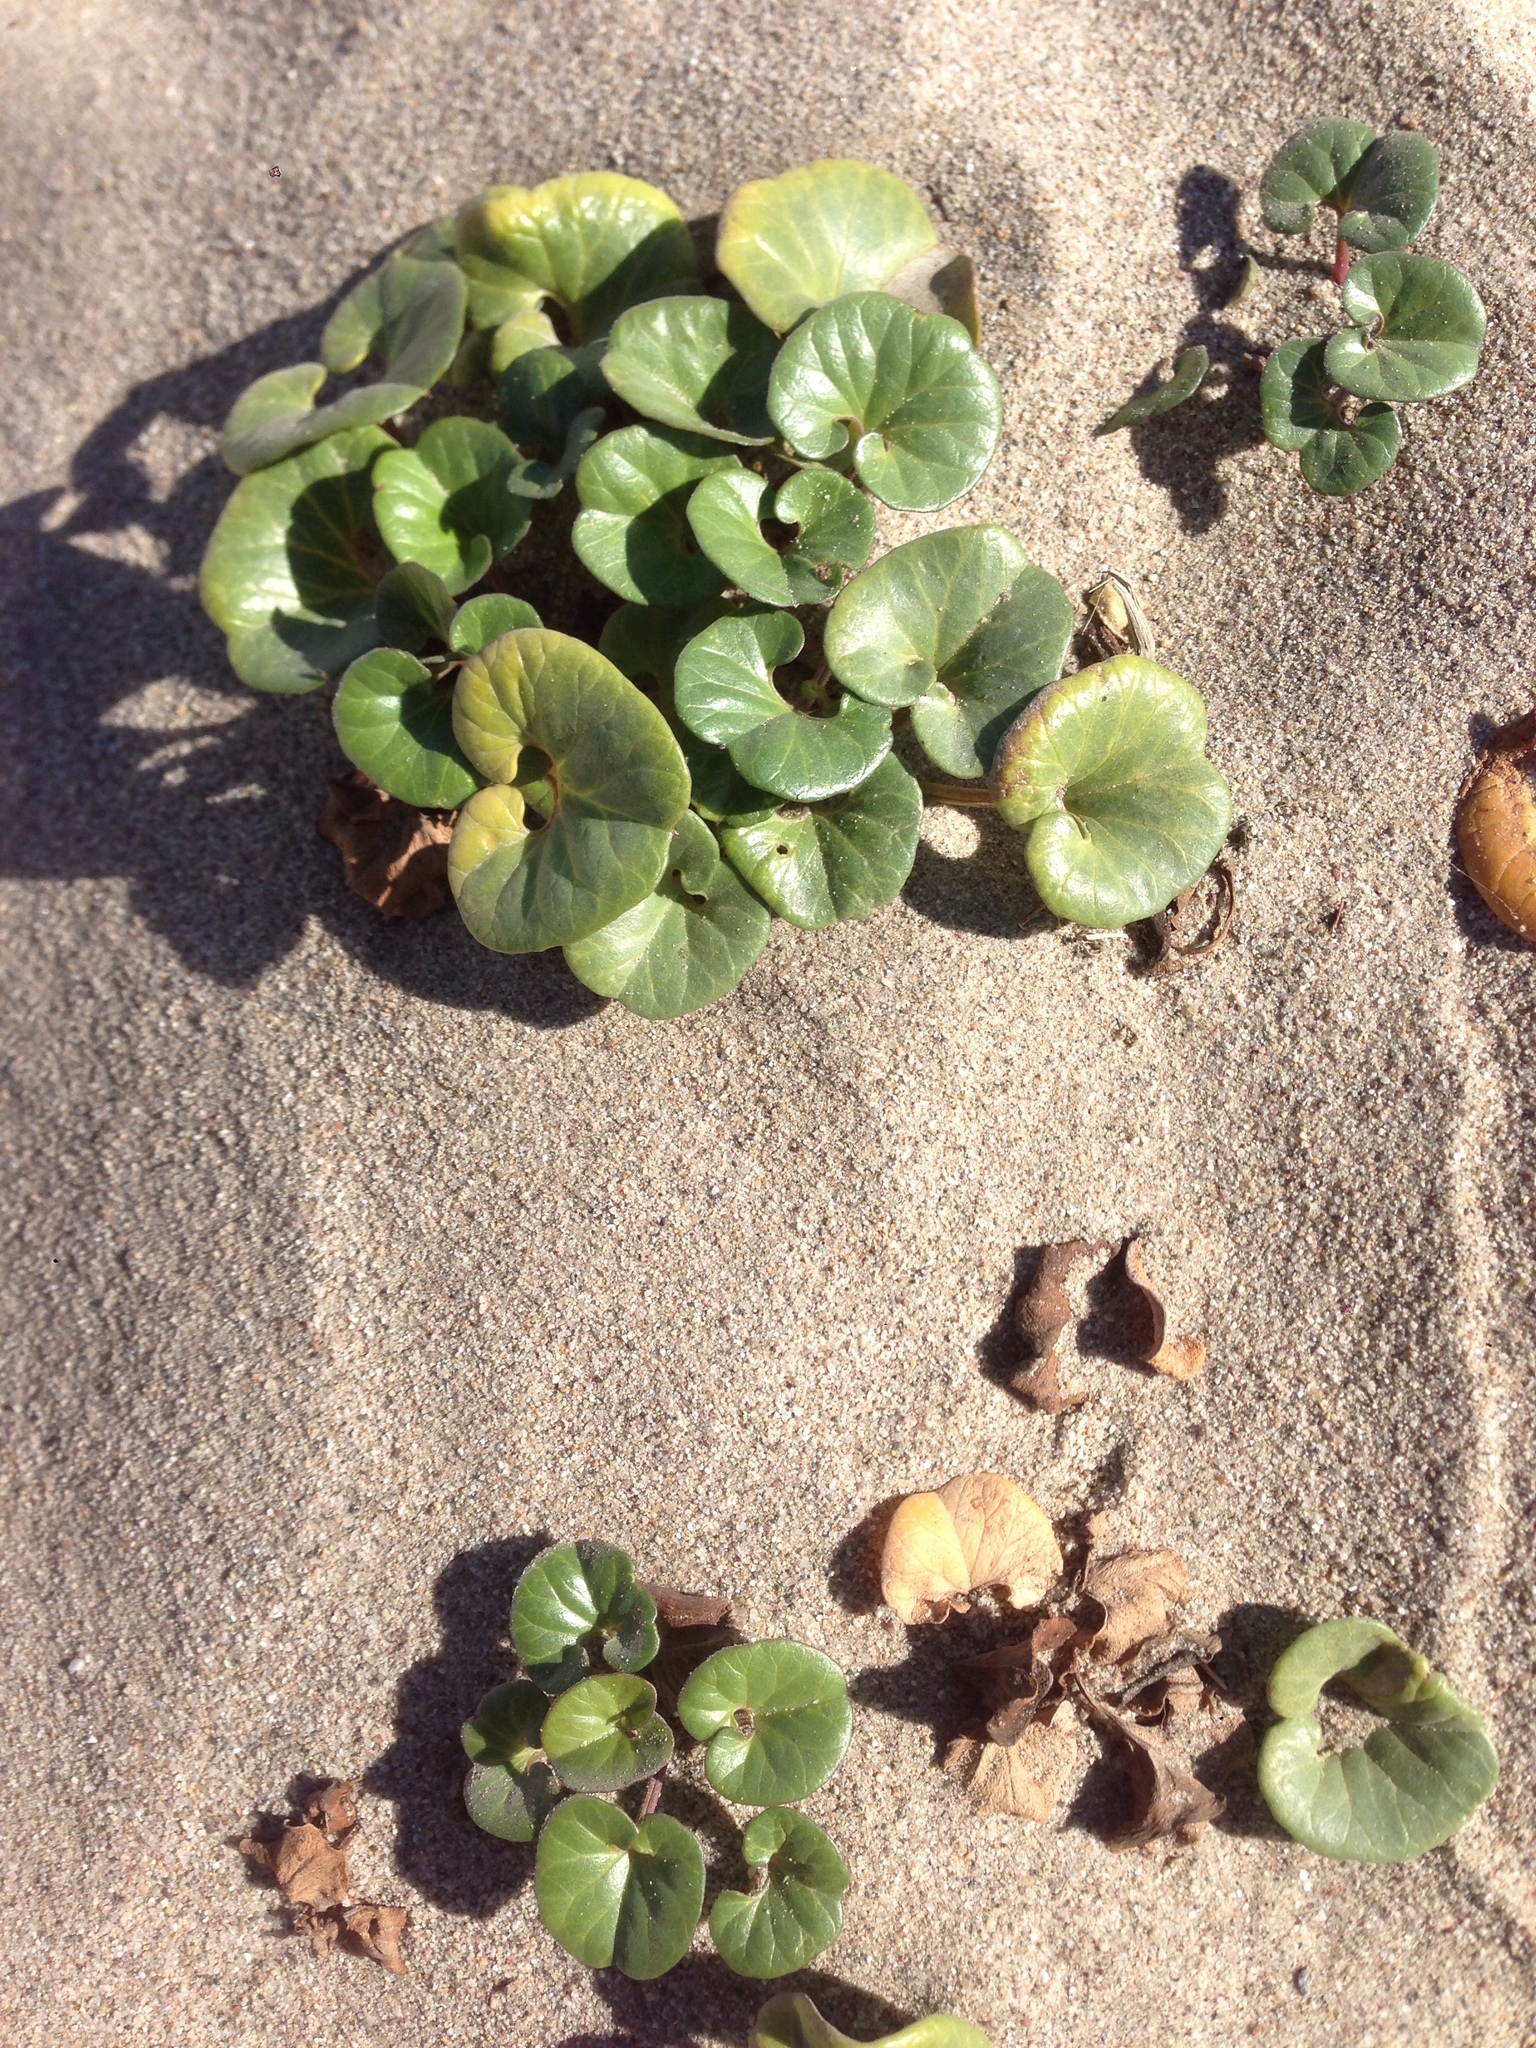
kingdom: Plantae
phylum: Tracheophyta
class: Magnoliopsida
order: Solanales
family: Convolvulaceae
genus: Calystegia
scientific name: Calystegia soldanella
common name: Sea bindweed
